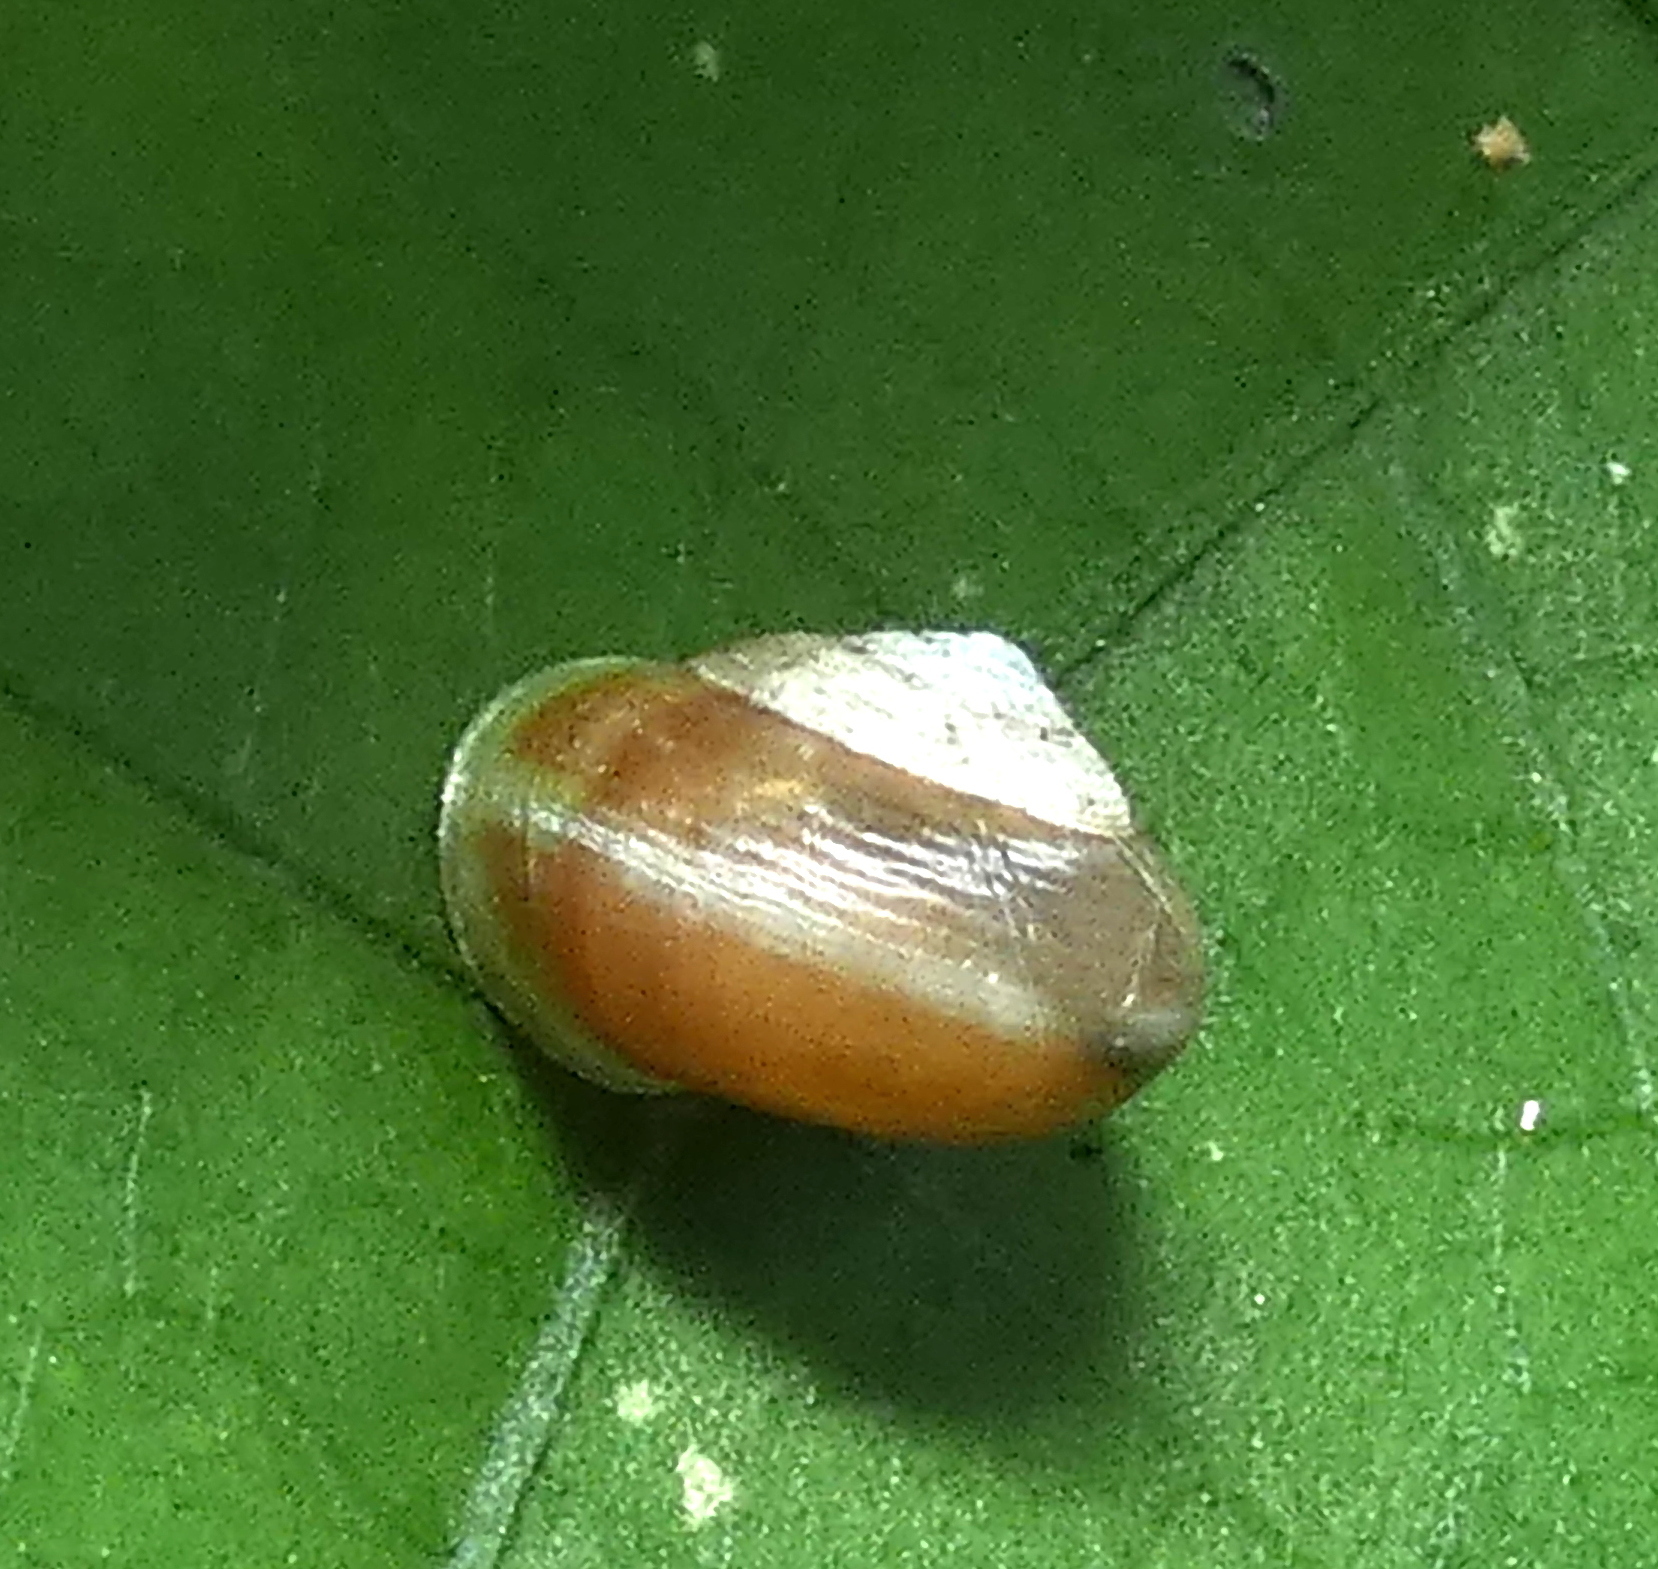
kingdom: Animalia
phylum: Mollusca
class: Gastropoda
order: Cycloneritida
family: Helicinidae
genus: Helicina
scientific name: Helicina variabilis
